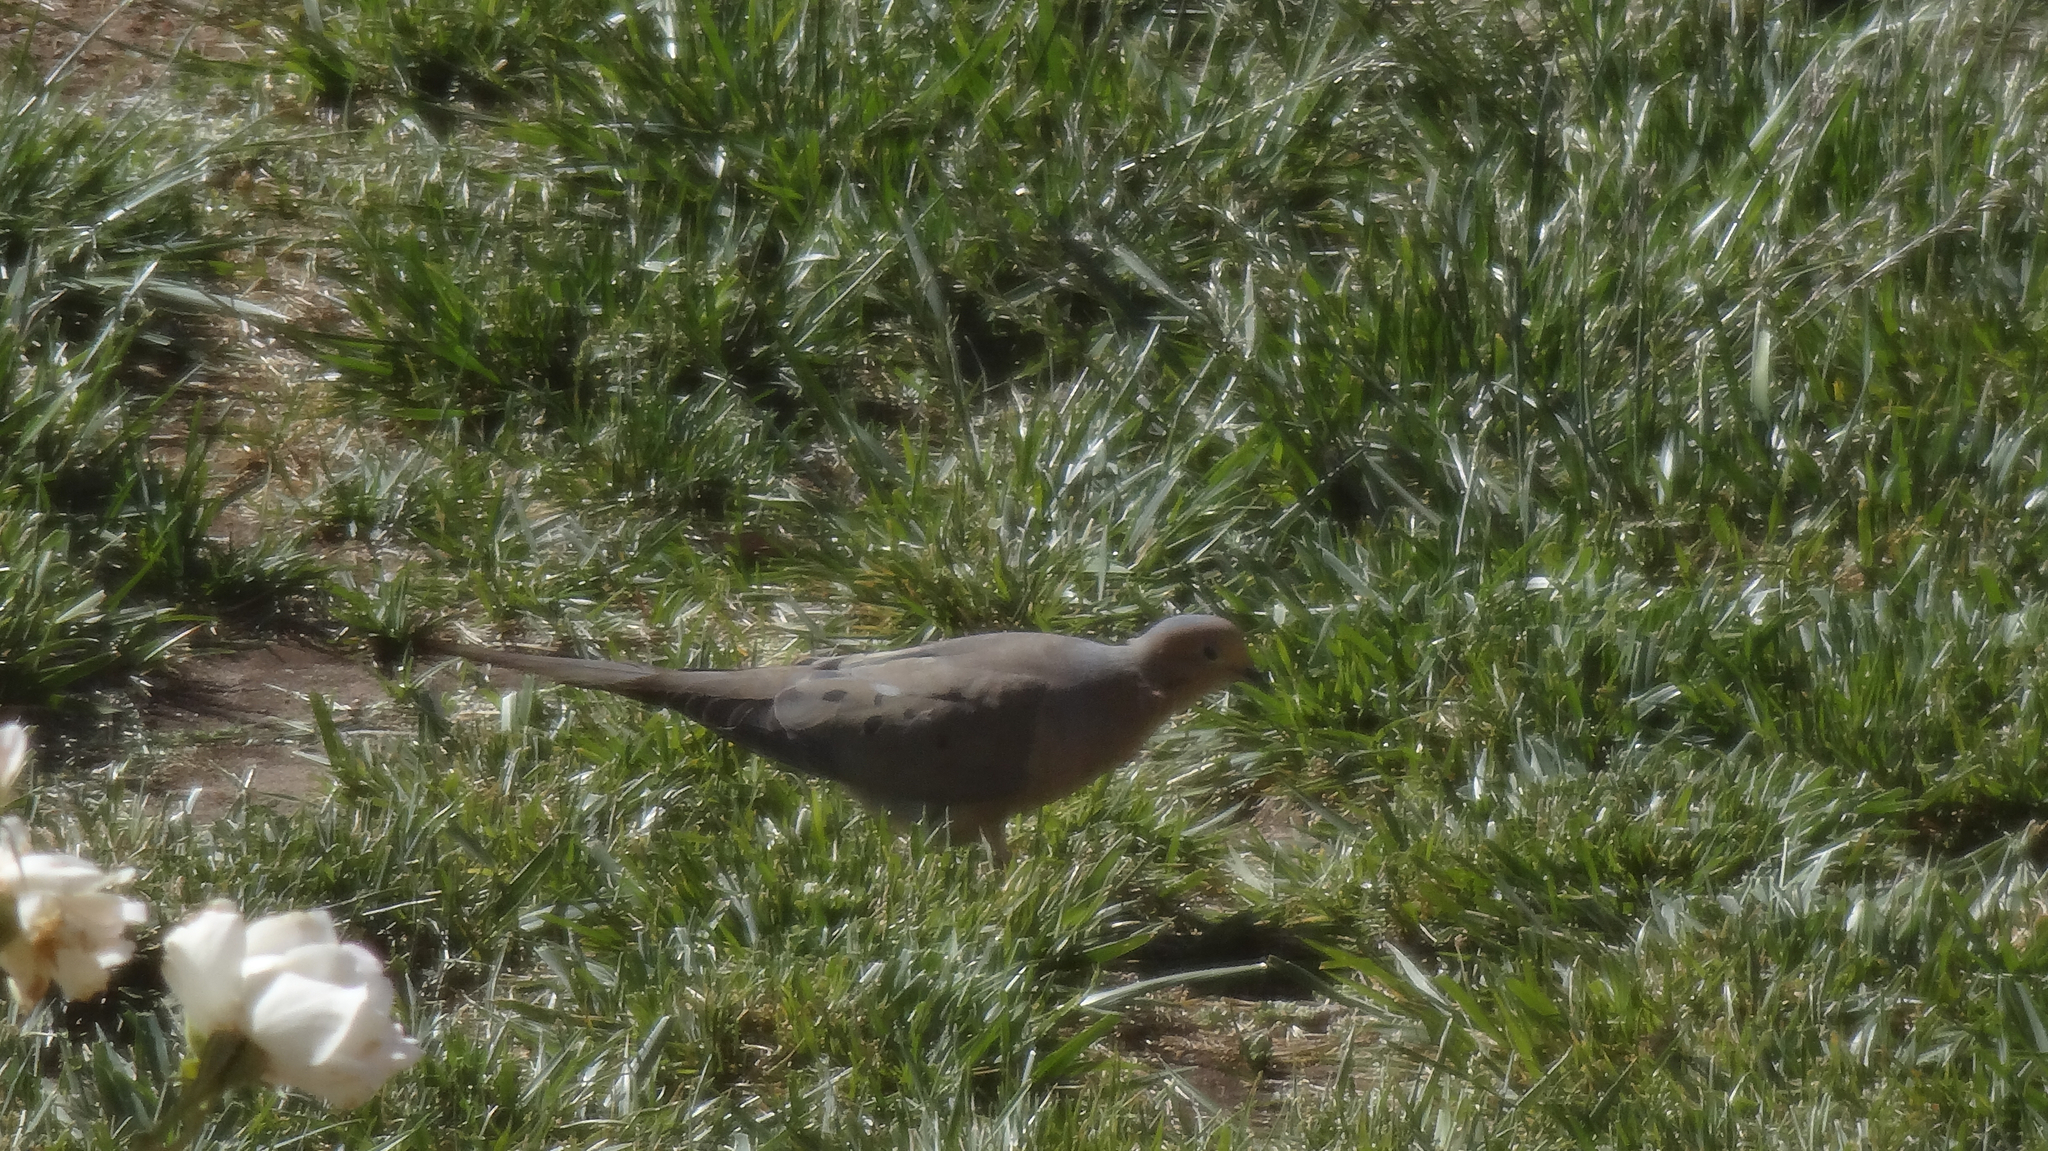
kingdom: Animalia
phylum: Chordata
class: Aves
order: Columbiformes
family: Columbidae
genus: Zenaida
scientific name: Zenaida macroura
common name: Mourning dove
